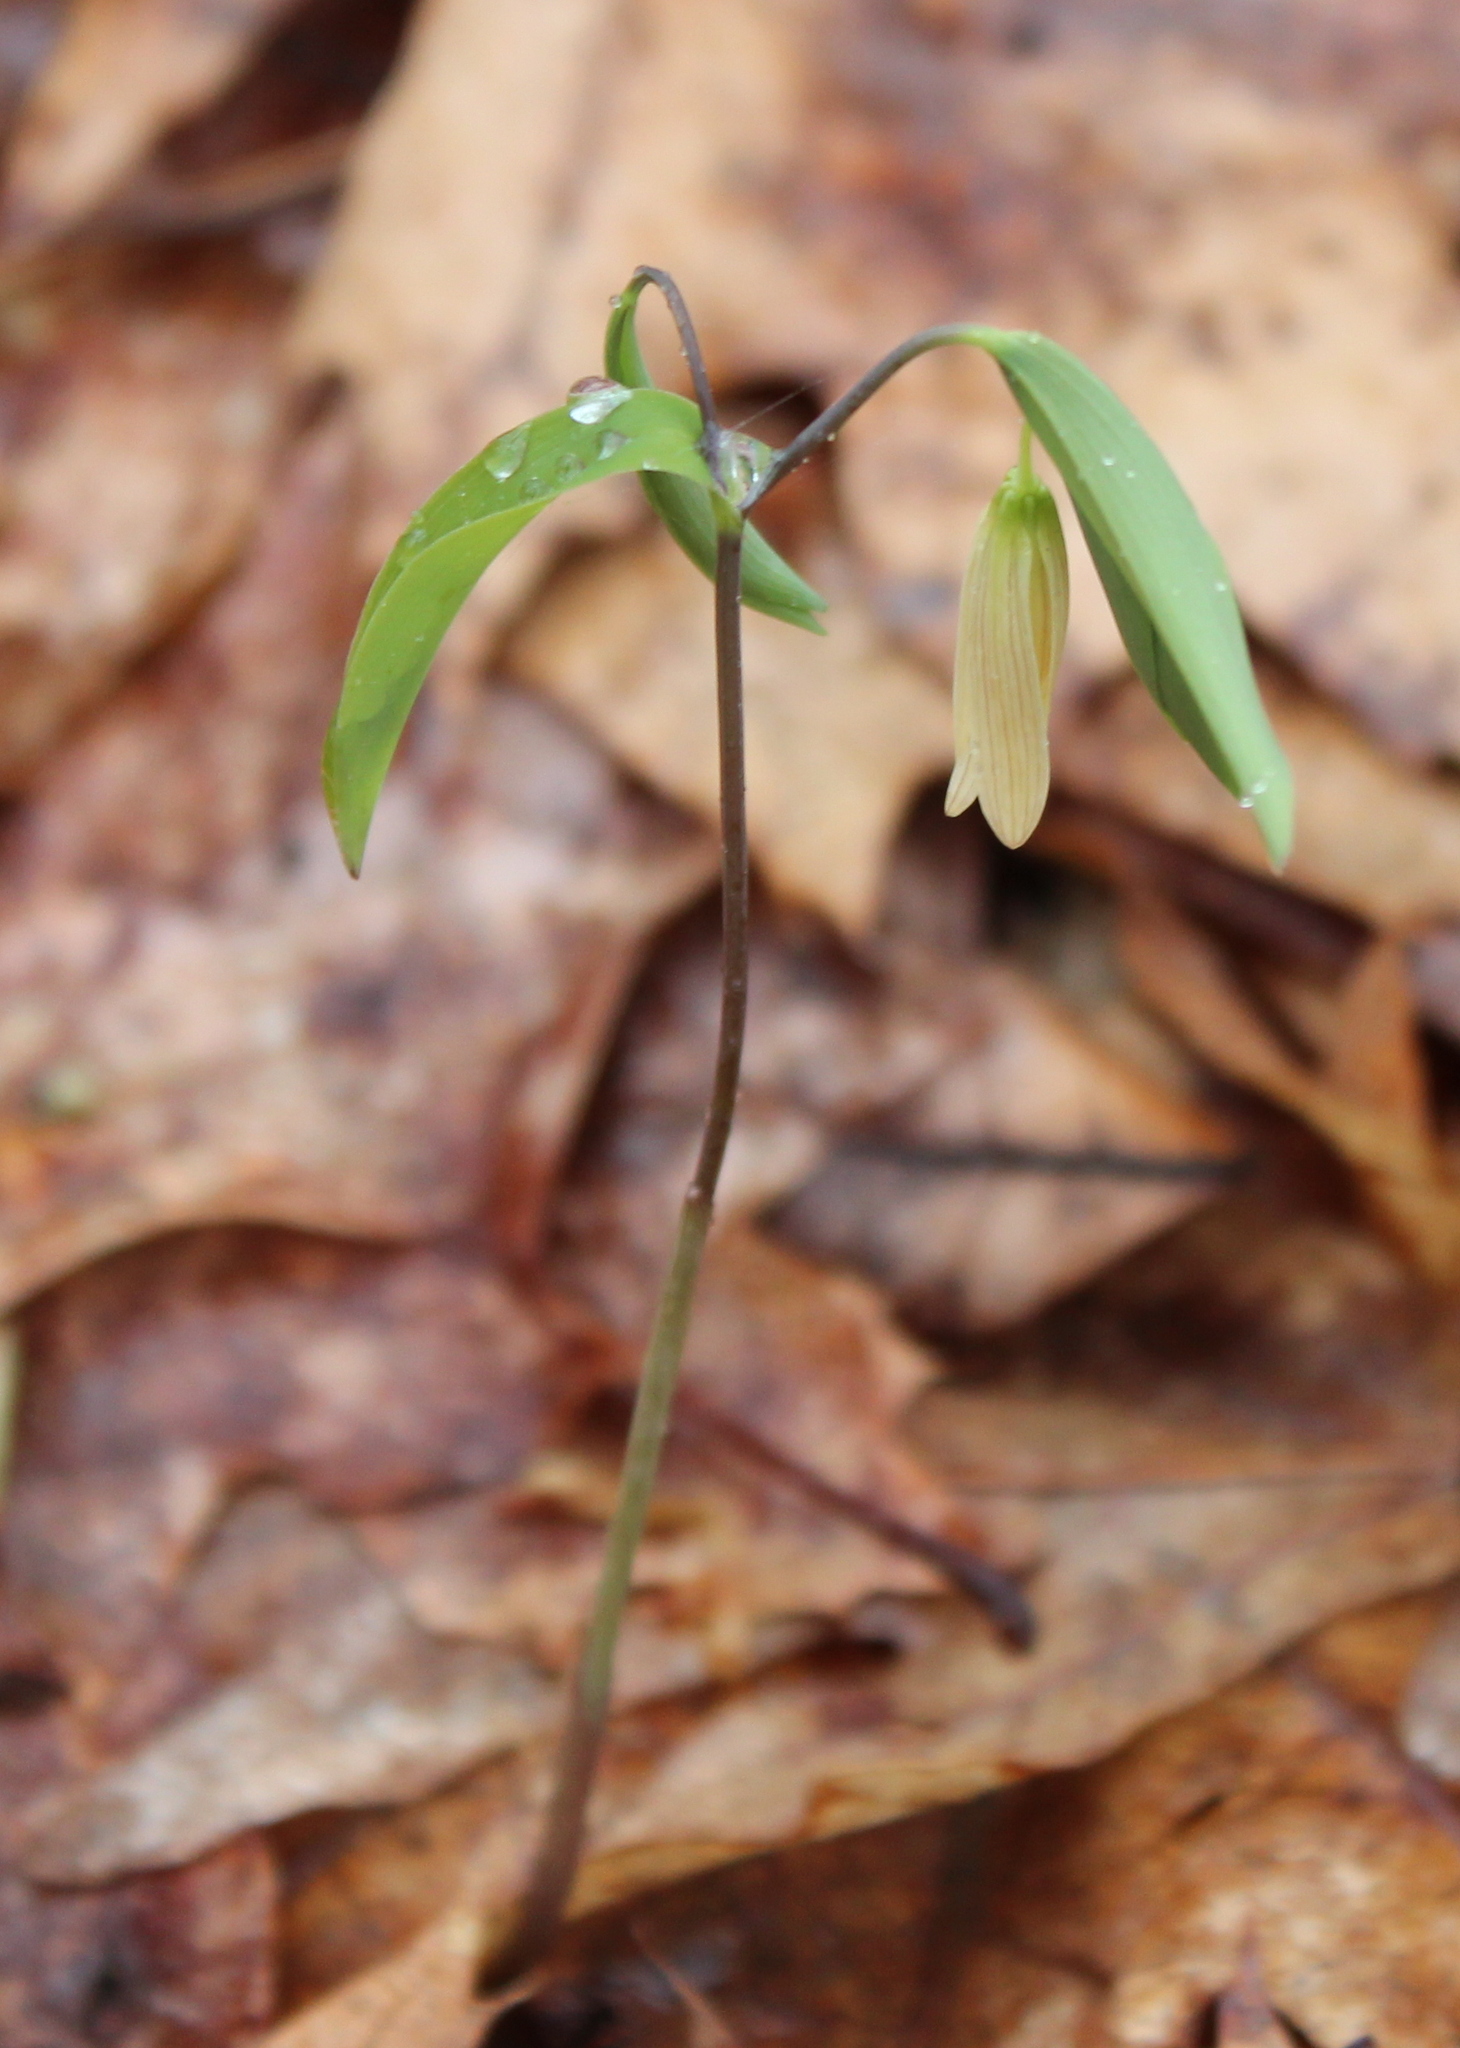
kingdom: Plantae
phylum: Tracheophyta
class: Liliopsida
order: Liliales
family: Colchicaceae
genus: Uvularia
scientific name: Uvularia sessilifolia
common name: Straw-lily
